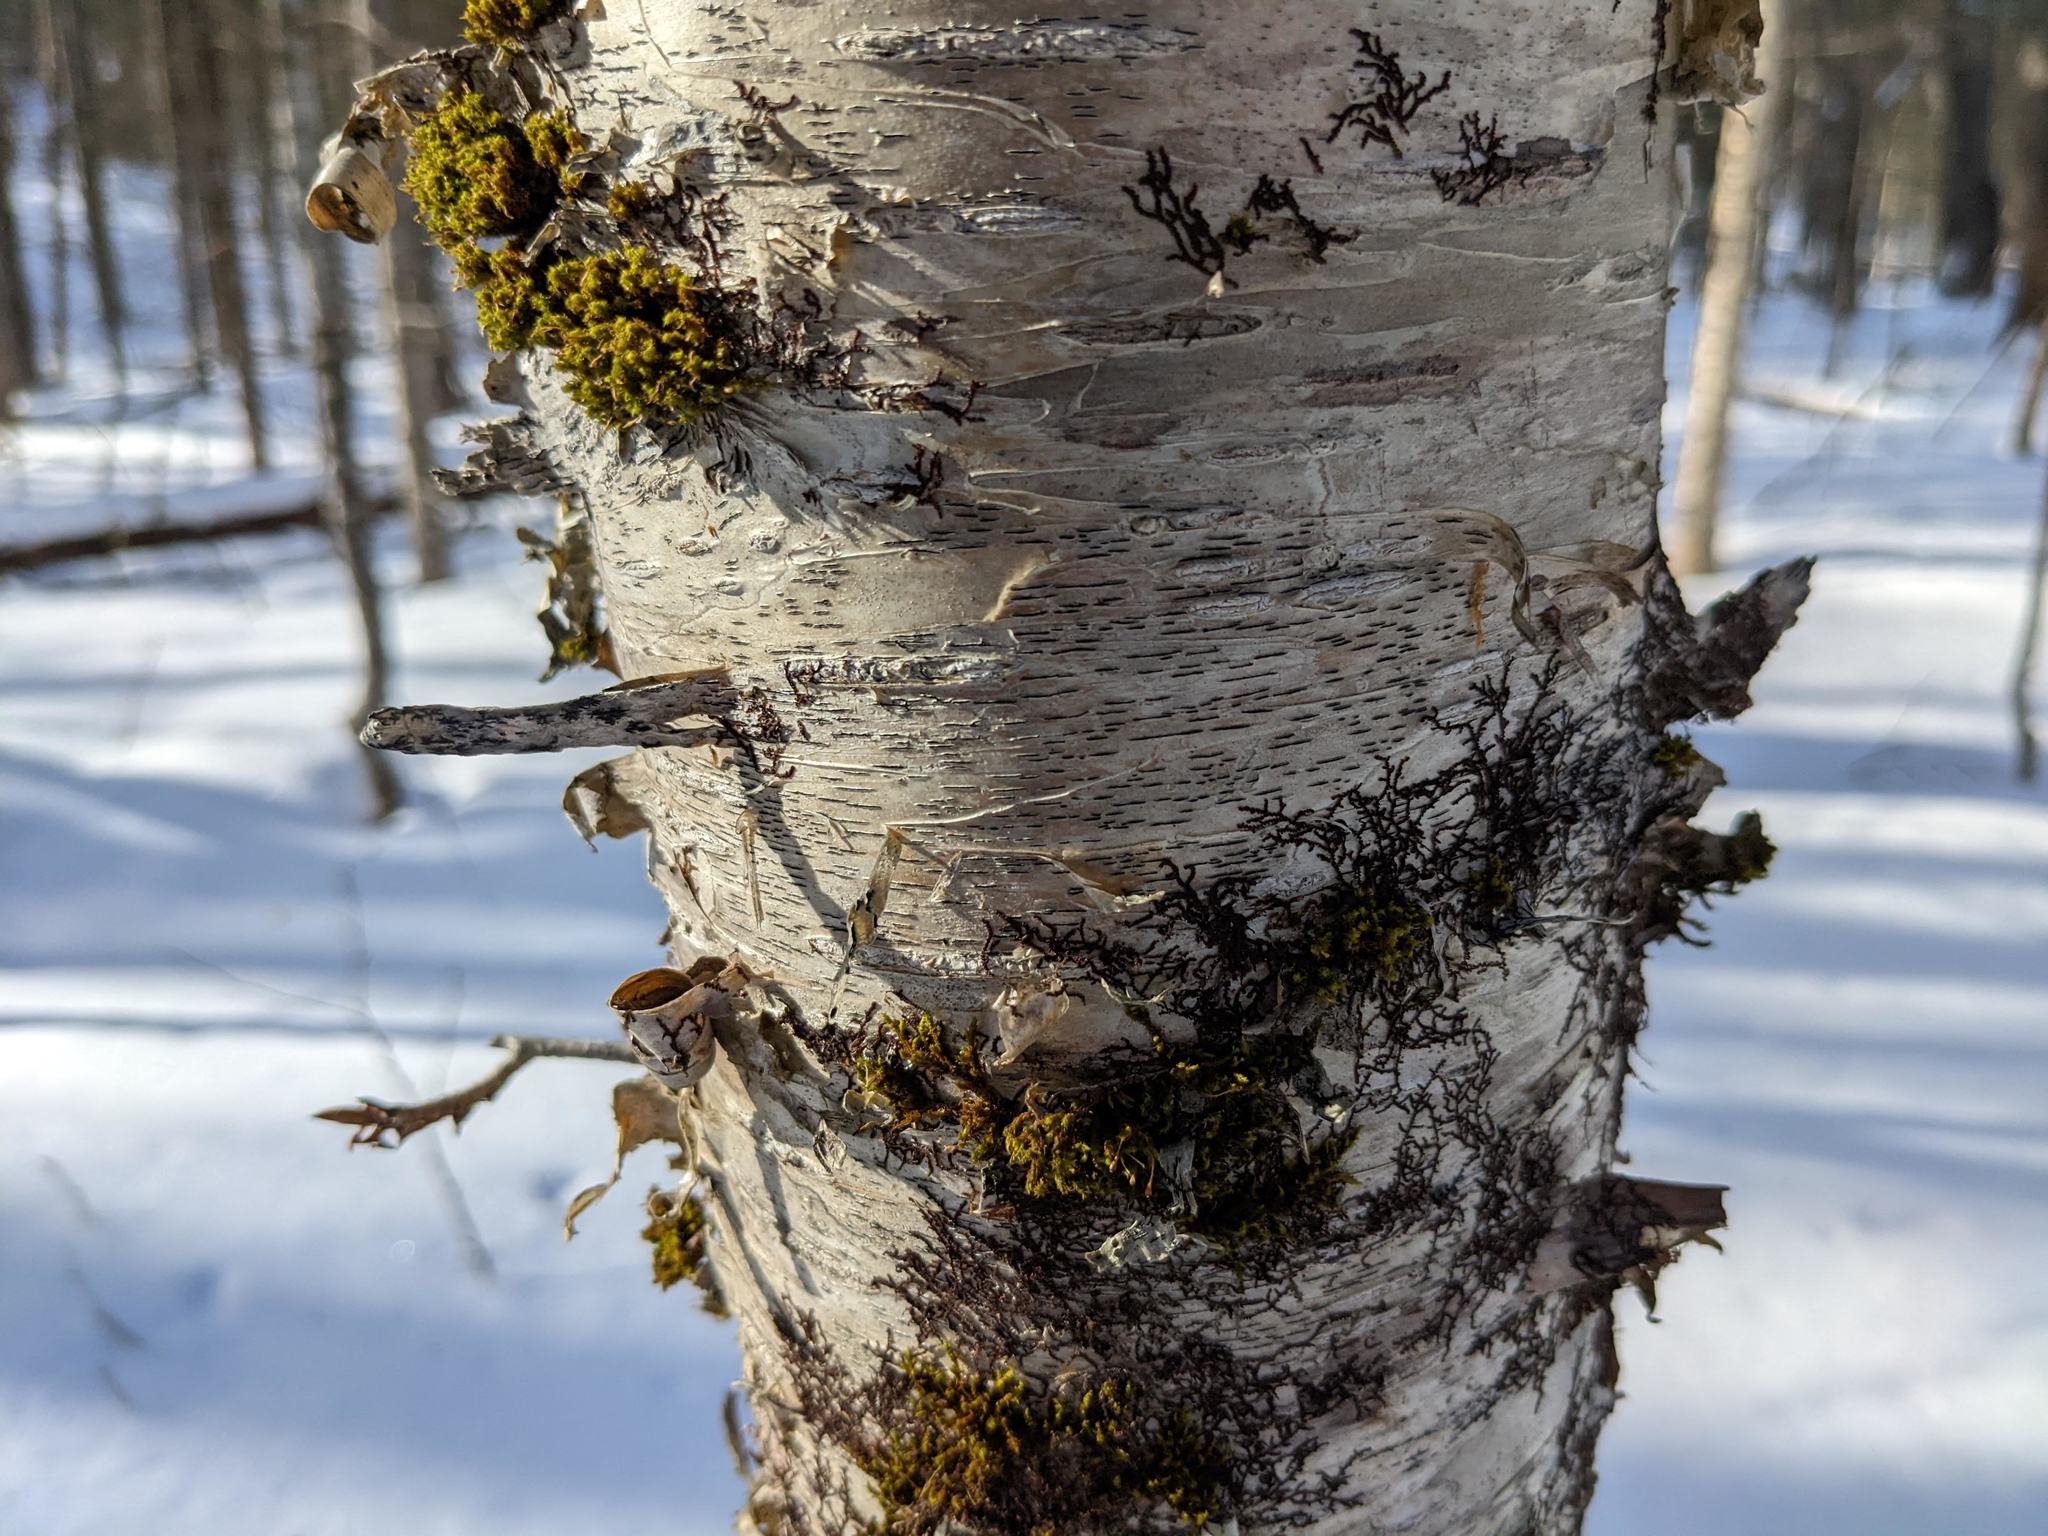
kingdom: Plantae
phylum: Bryophyta
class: Bryopsida
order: Orthotrichales
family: Orthotrichaceae
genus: Ulota
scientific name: Ulota crispa
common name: Crisped pincushion moss
